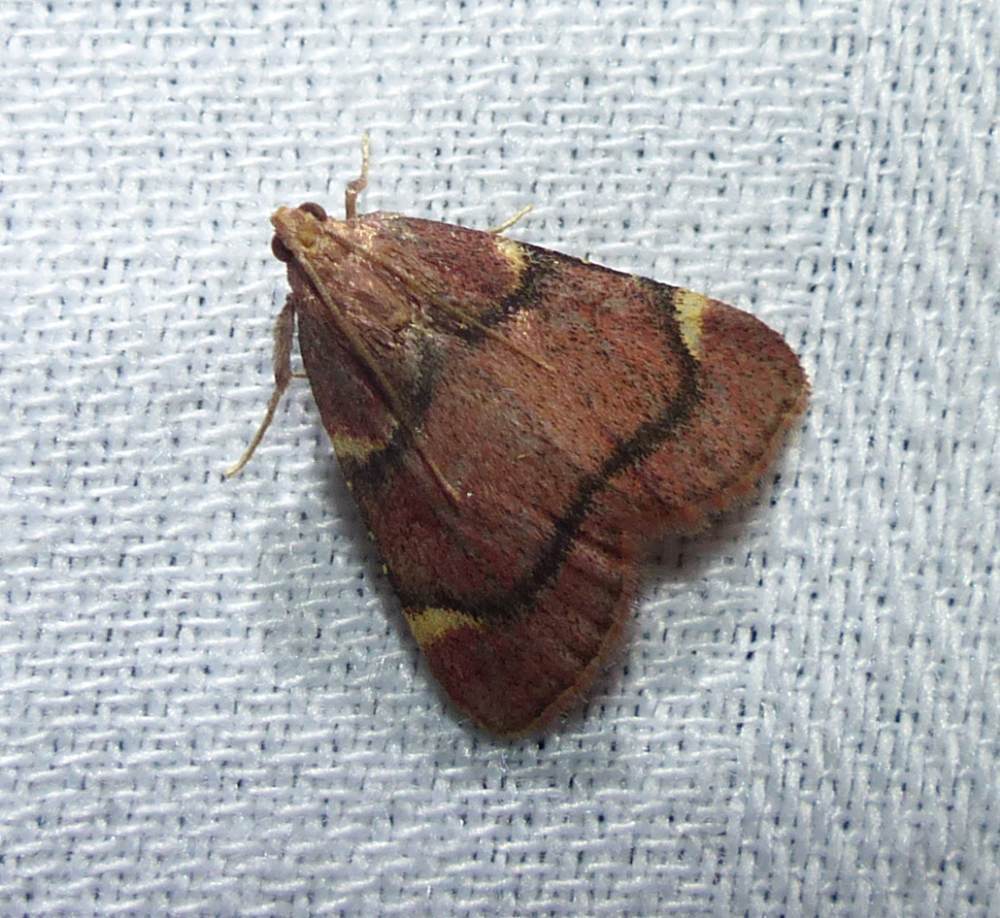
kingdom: Animalia
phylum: Arthropoda
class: Insecta
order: Lepidoptera
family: Pyralidae
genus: Hypsopygia
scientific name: Hypsopygia thymetusalis
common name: Spruce needleworm moth
